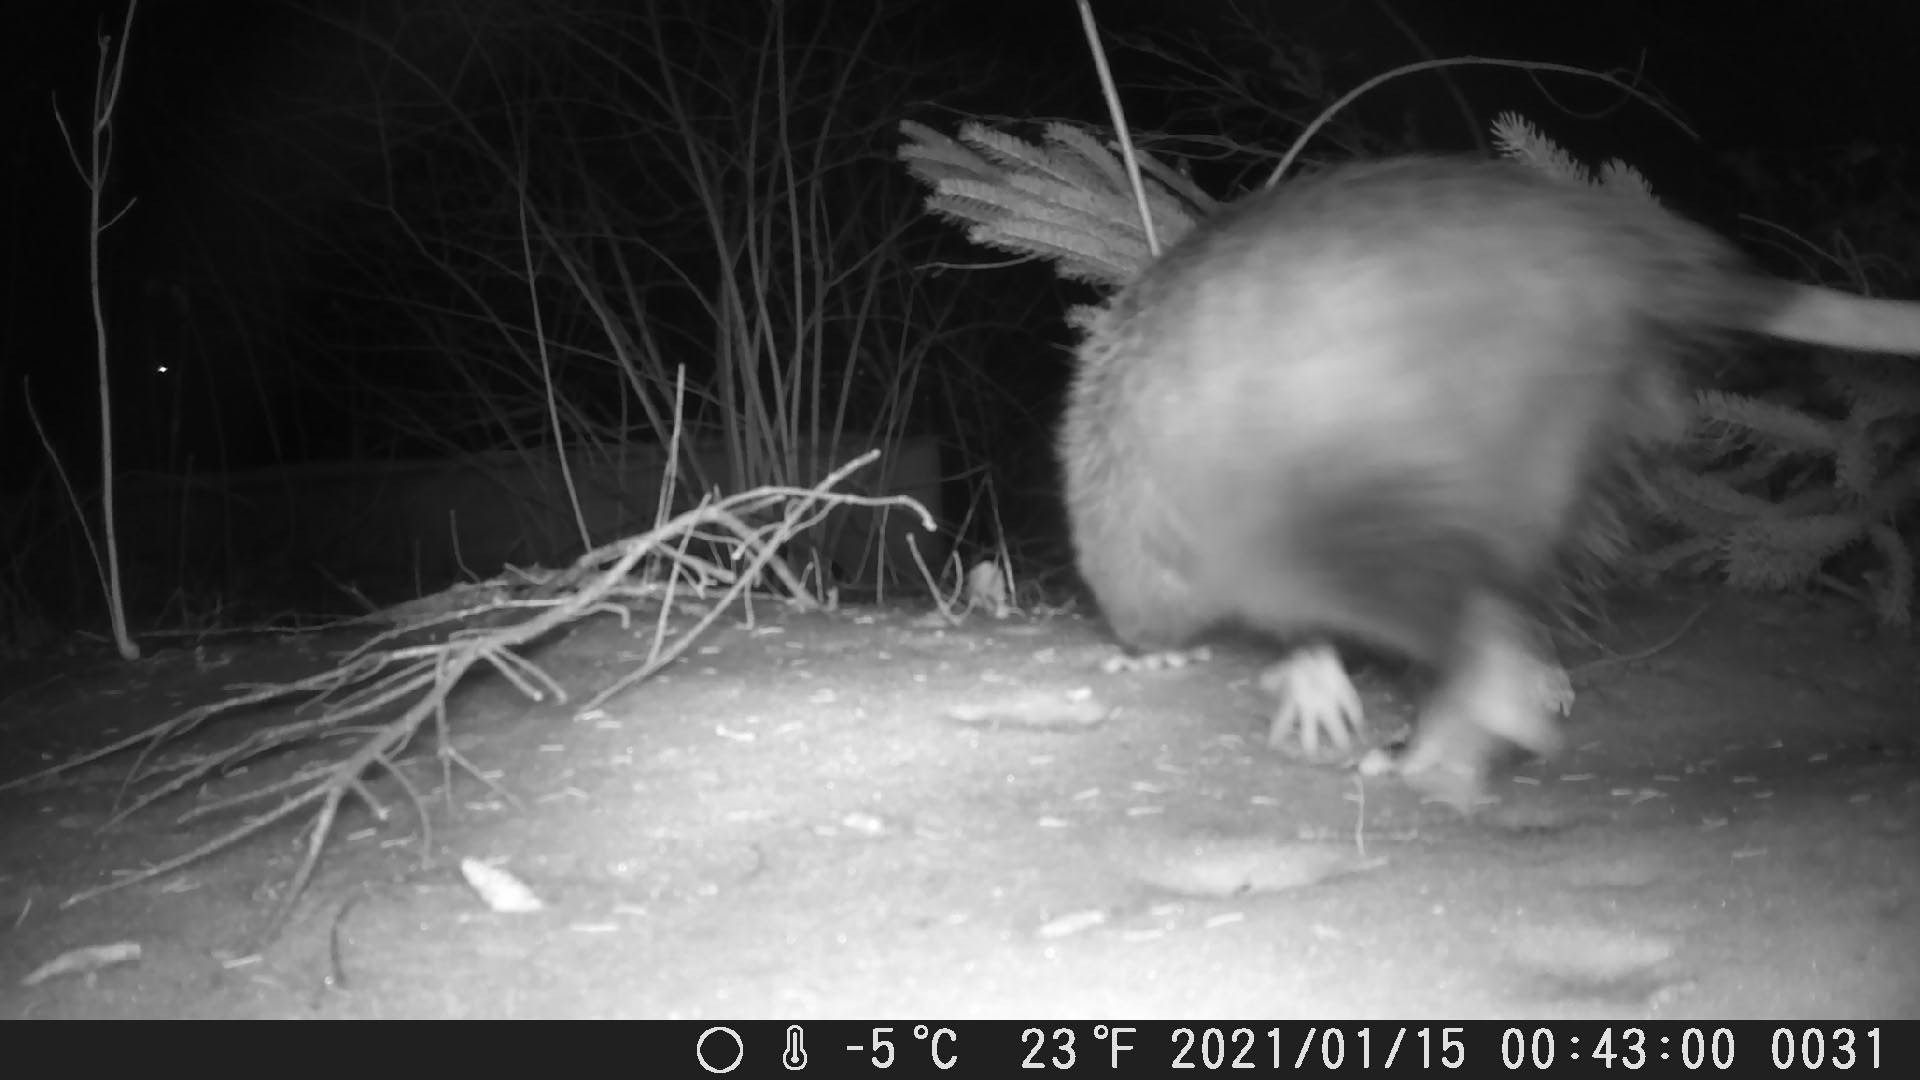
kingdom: Animalia
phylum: Chordata
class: Mammalia
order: Didelphimorphia
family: Didelphidae
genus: Didelphis
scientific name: Didelphis virginiana
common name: Virginia opossum
